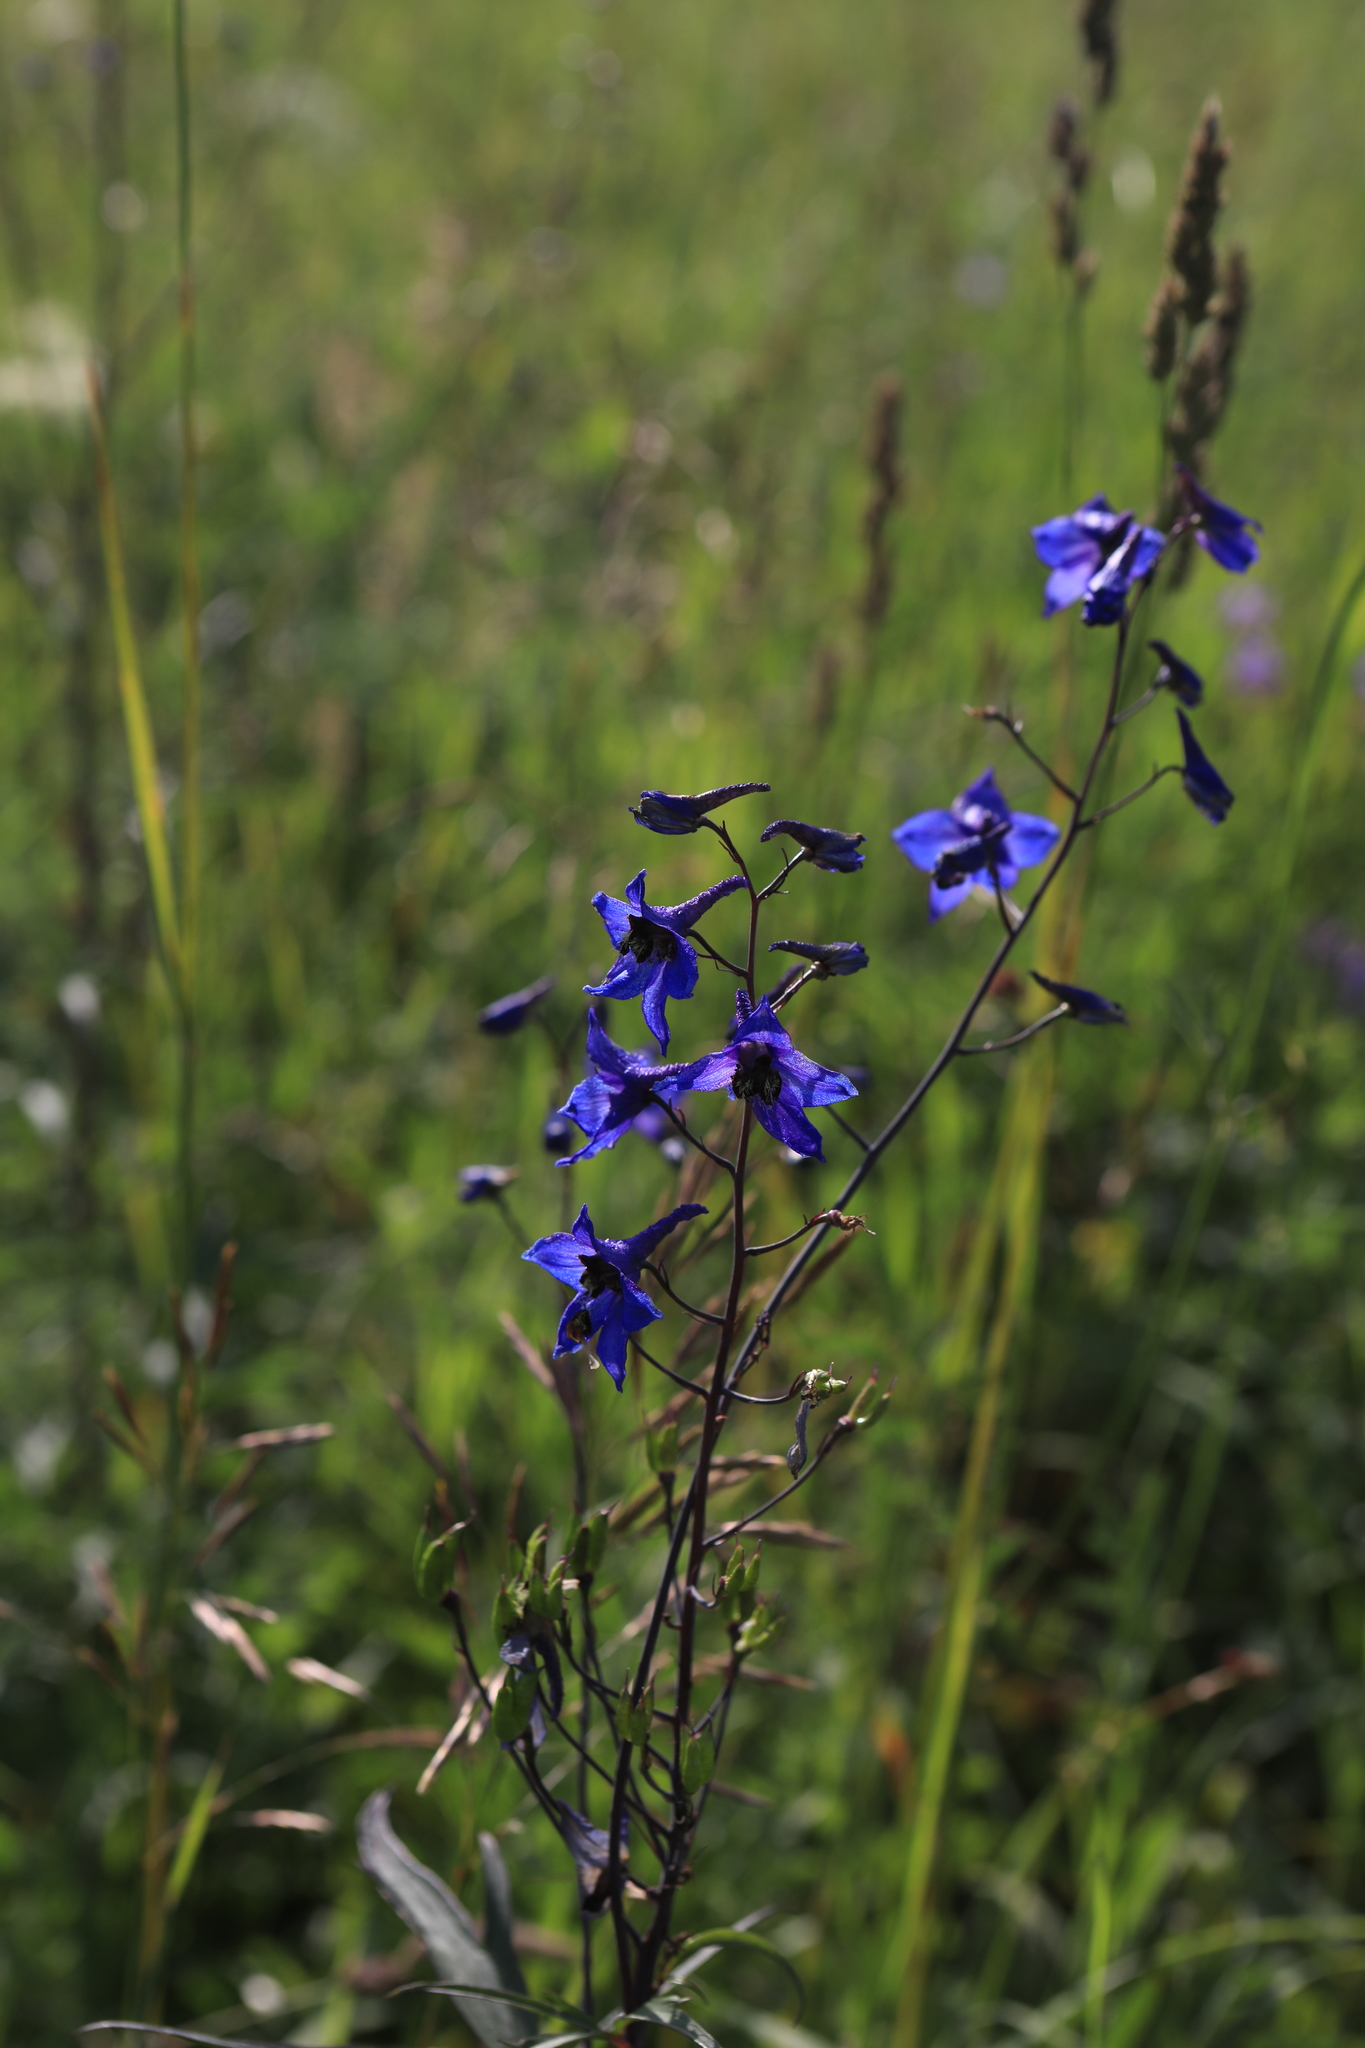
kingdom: Plantae
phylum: Tracheophyta
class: Magnoliopsida
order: Ranunculales
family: Ranunculaceae
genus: Delphinium
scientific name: Delphinium elatum
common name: Candle larkspur
